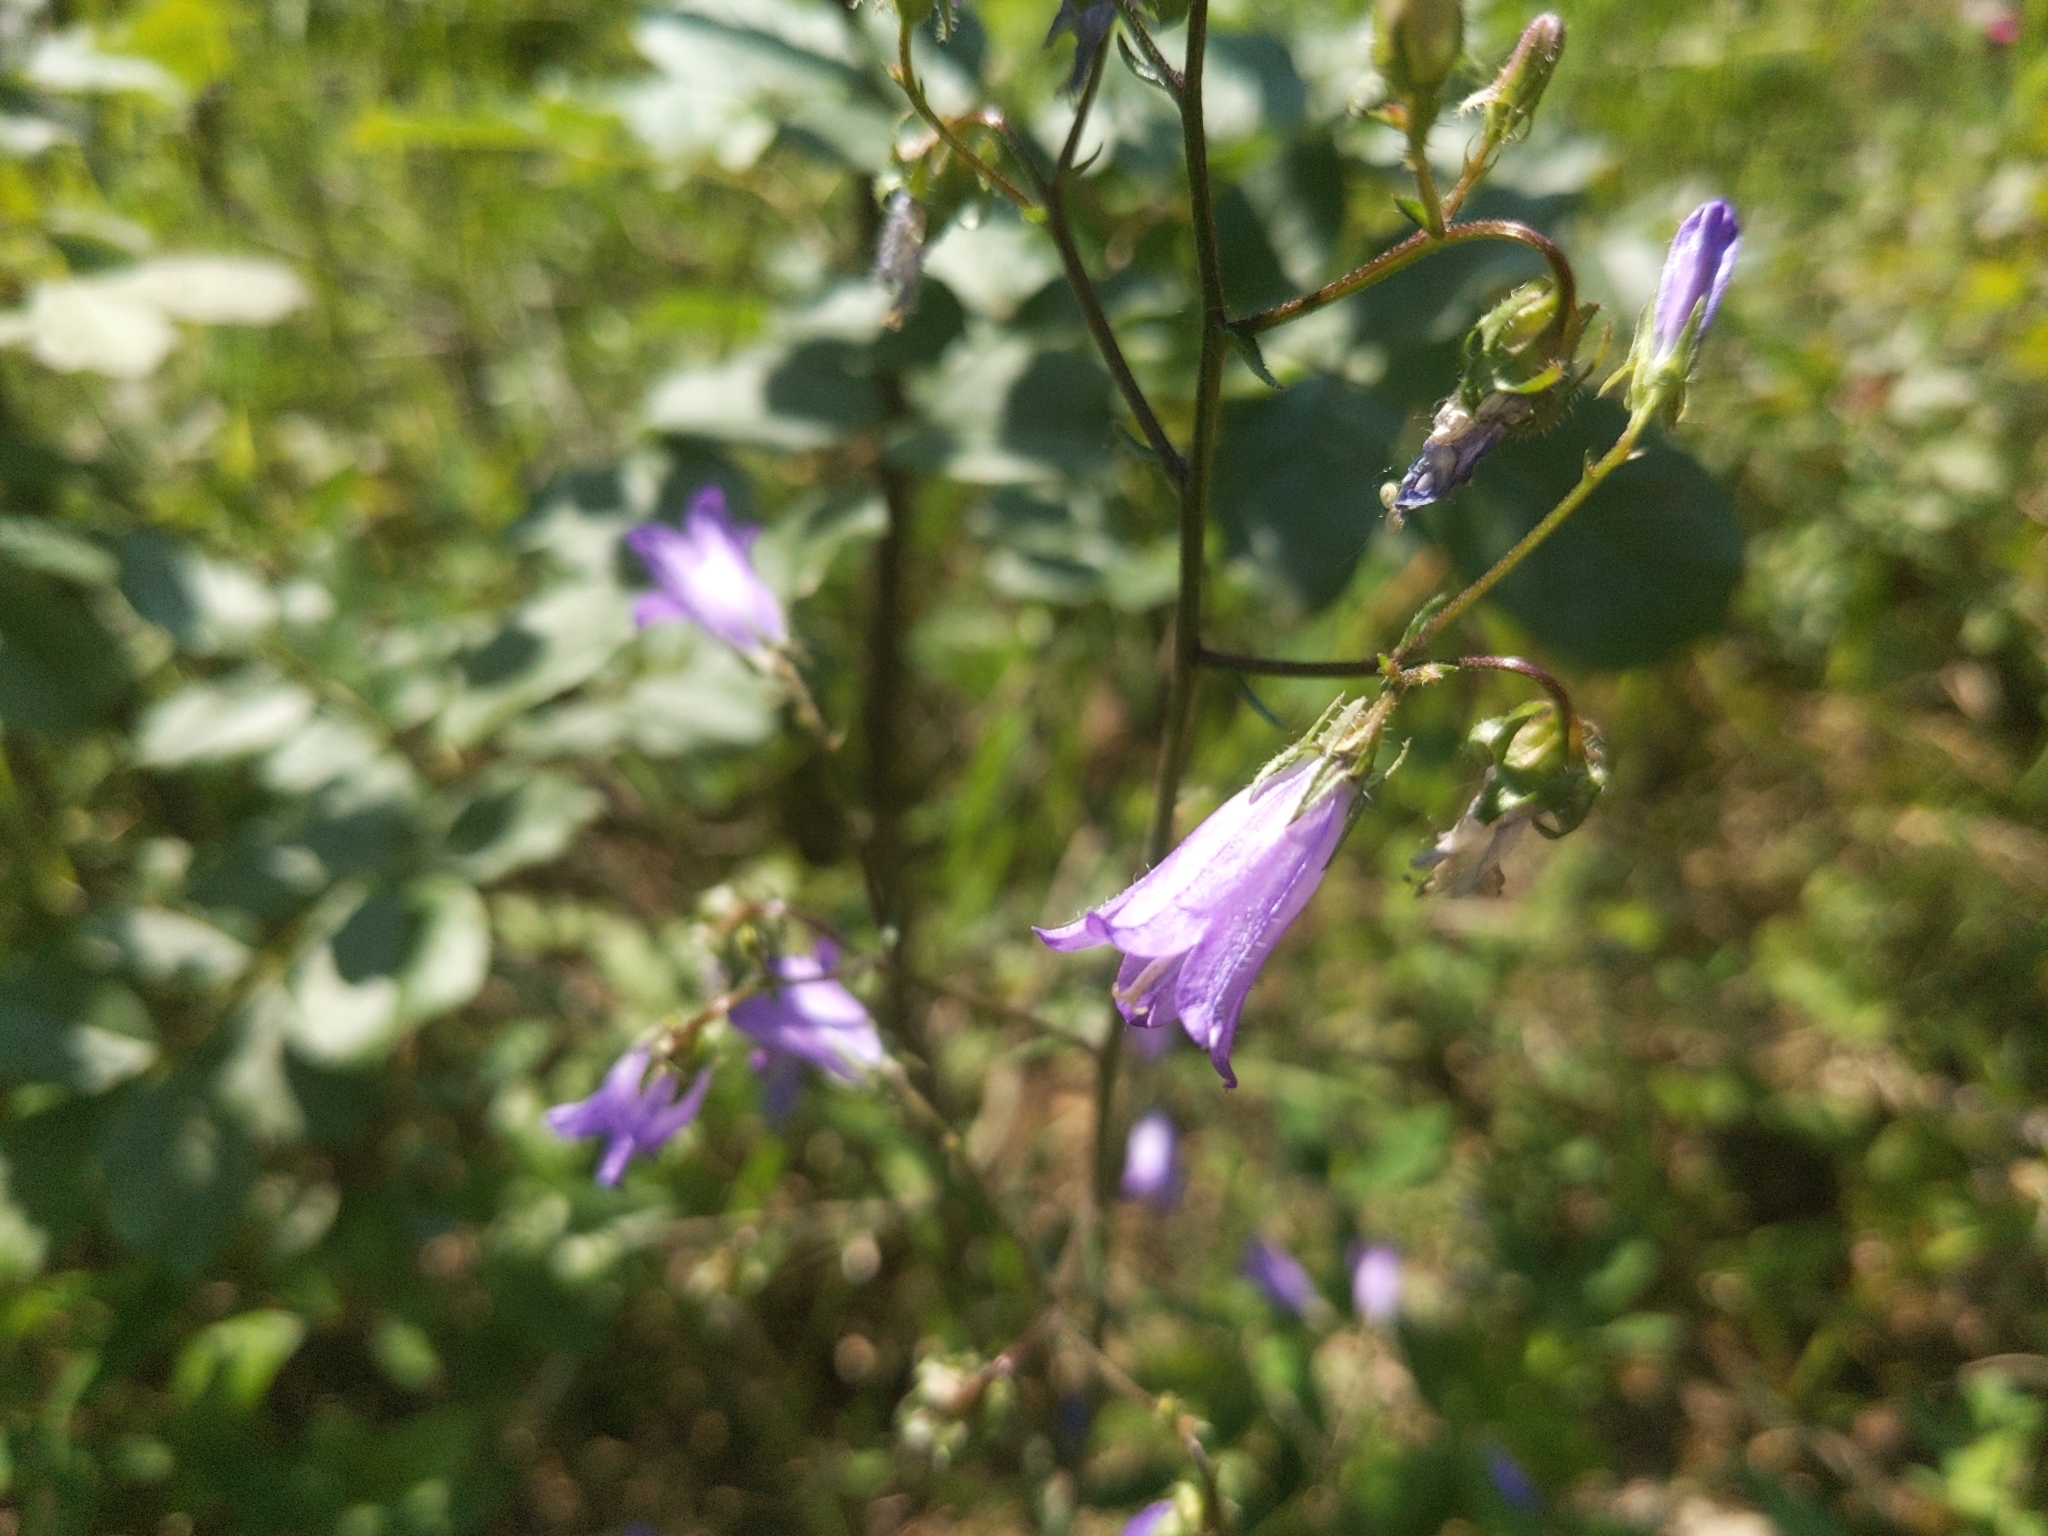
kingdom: Plantae
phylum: Tracheophyta
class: Magnoliopsida
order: Asterales
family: Campanulaceae
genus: Campanula
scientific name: Campanula sibirica
